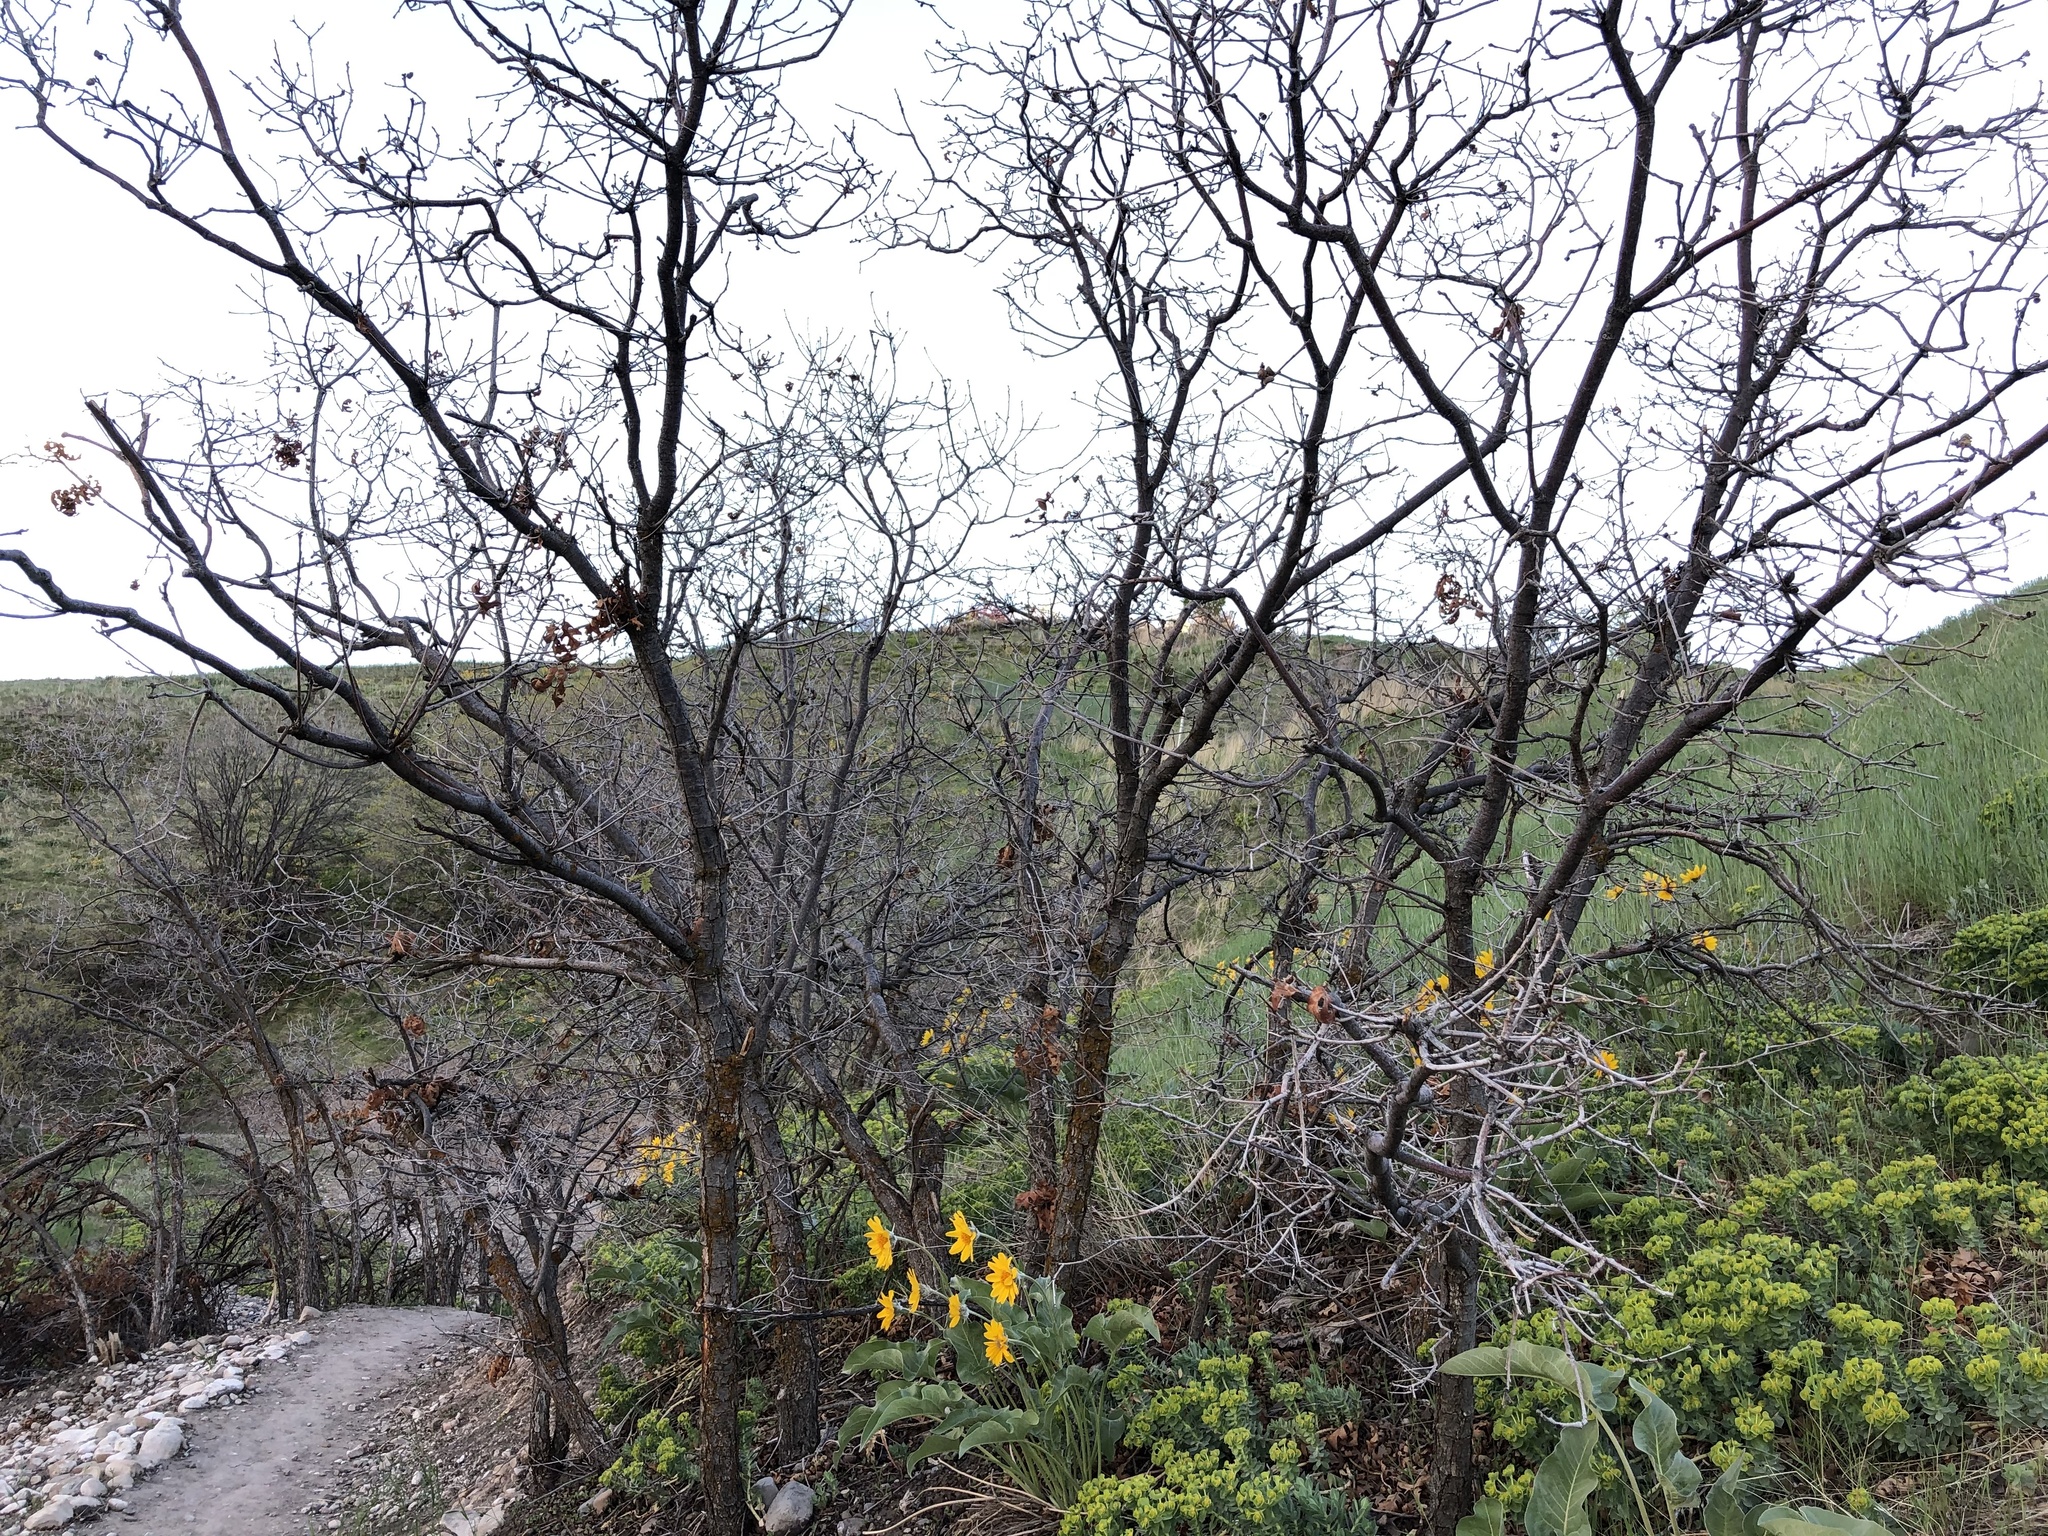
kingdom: Plantae
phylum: Tracheophyta
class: Magnoliopsida
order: Fagales
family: Fagaceae
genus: Quercus
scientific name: Quercus gambelii
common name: Gambel oak
